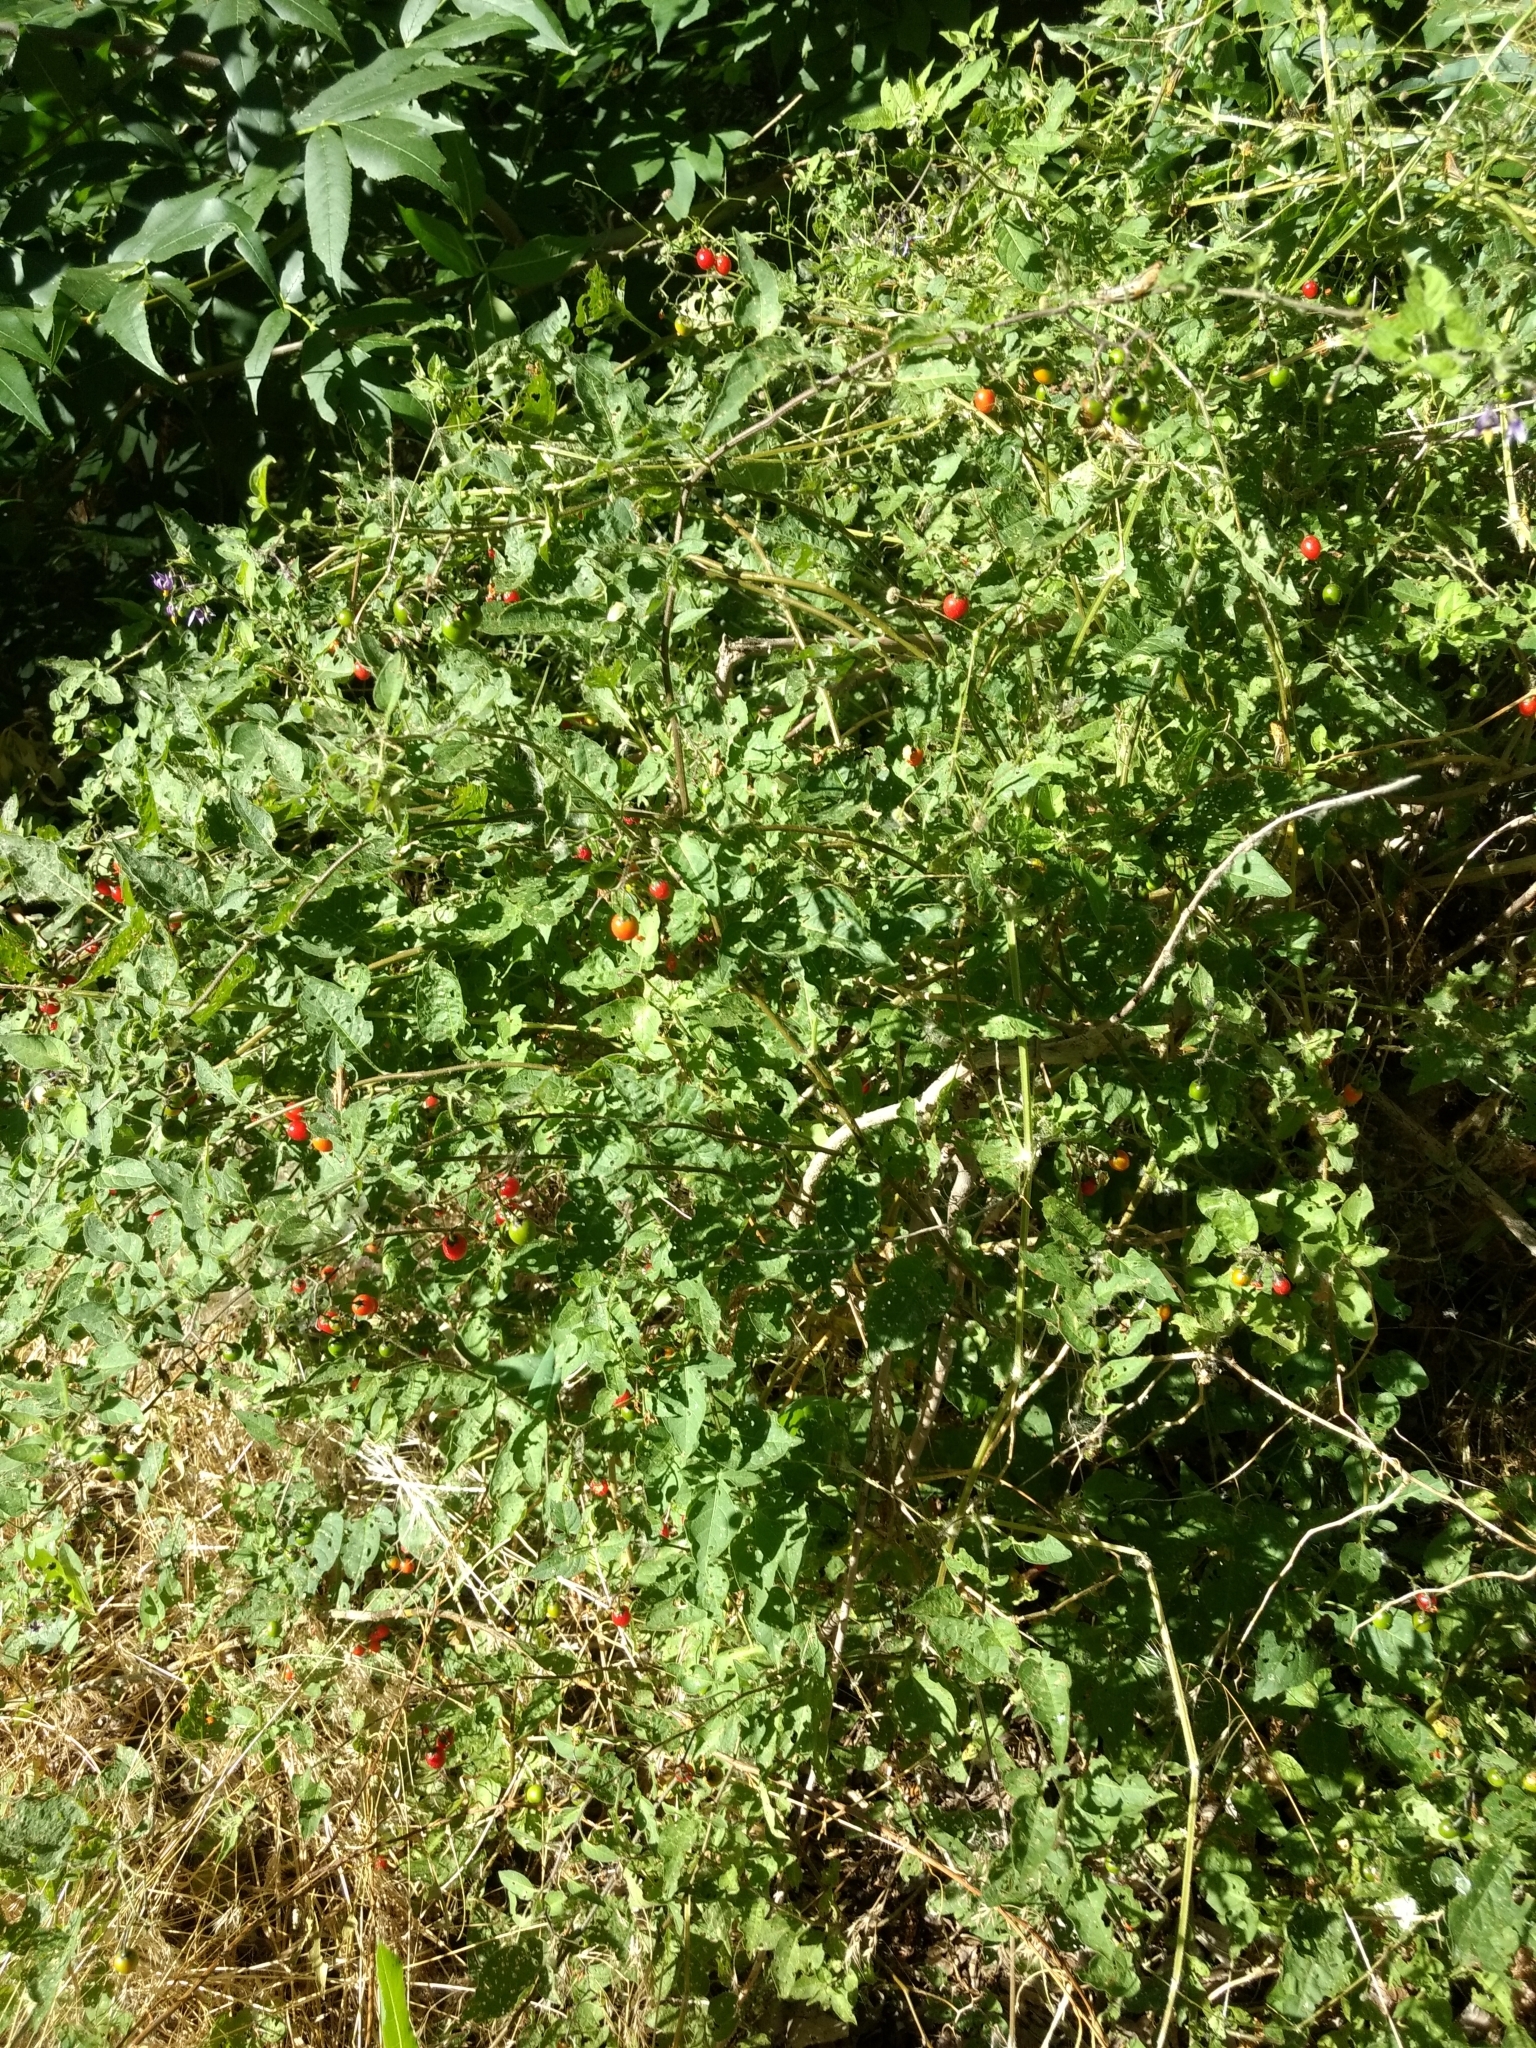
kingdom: Plantae
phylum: Tracheophyta
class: Magnoliopsida
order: Solanales
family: Solanaceae
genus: Solanum
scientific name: Solanum dulcamara
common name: Climbing nightshade
